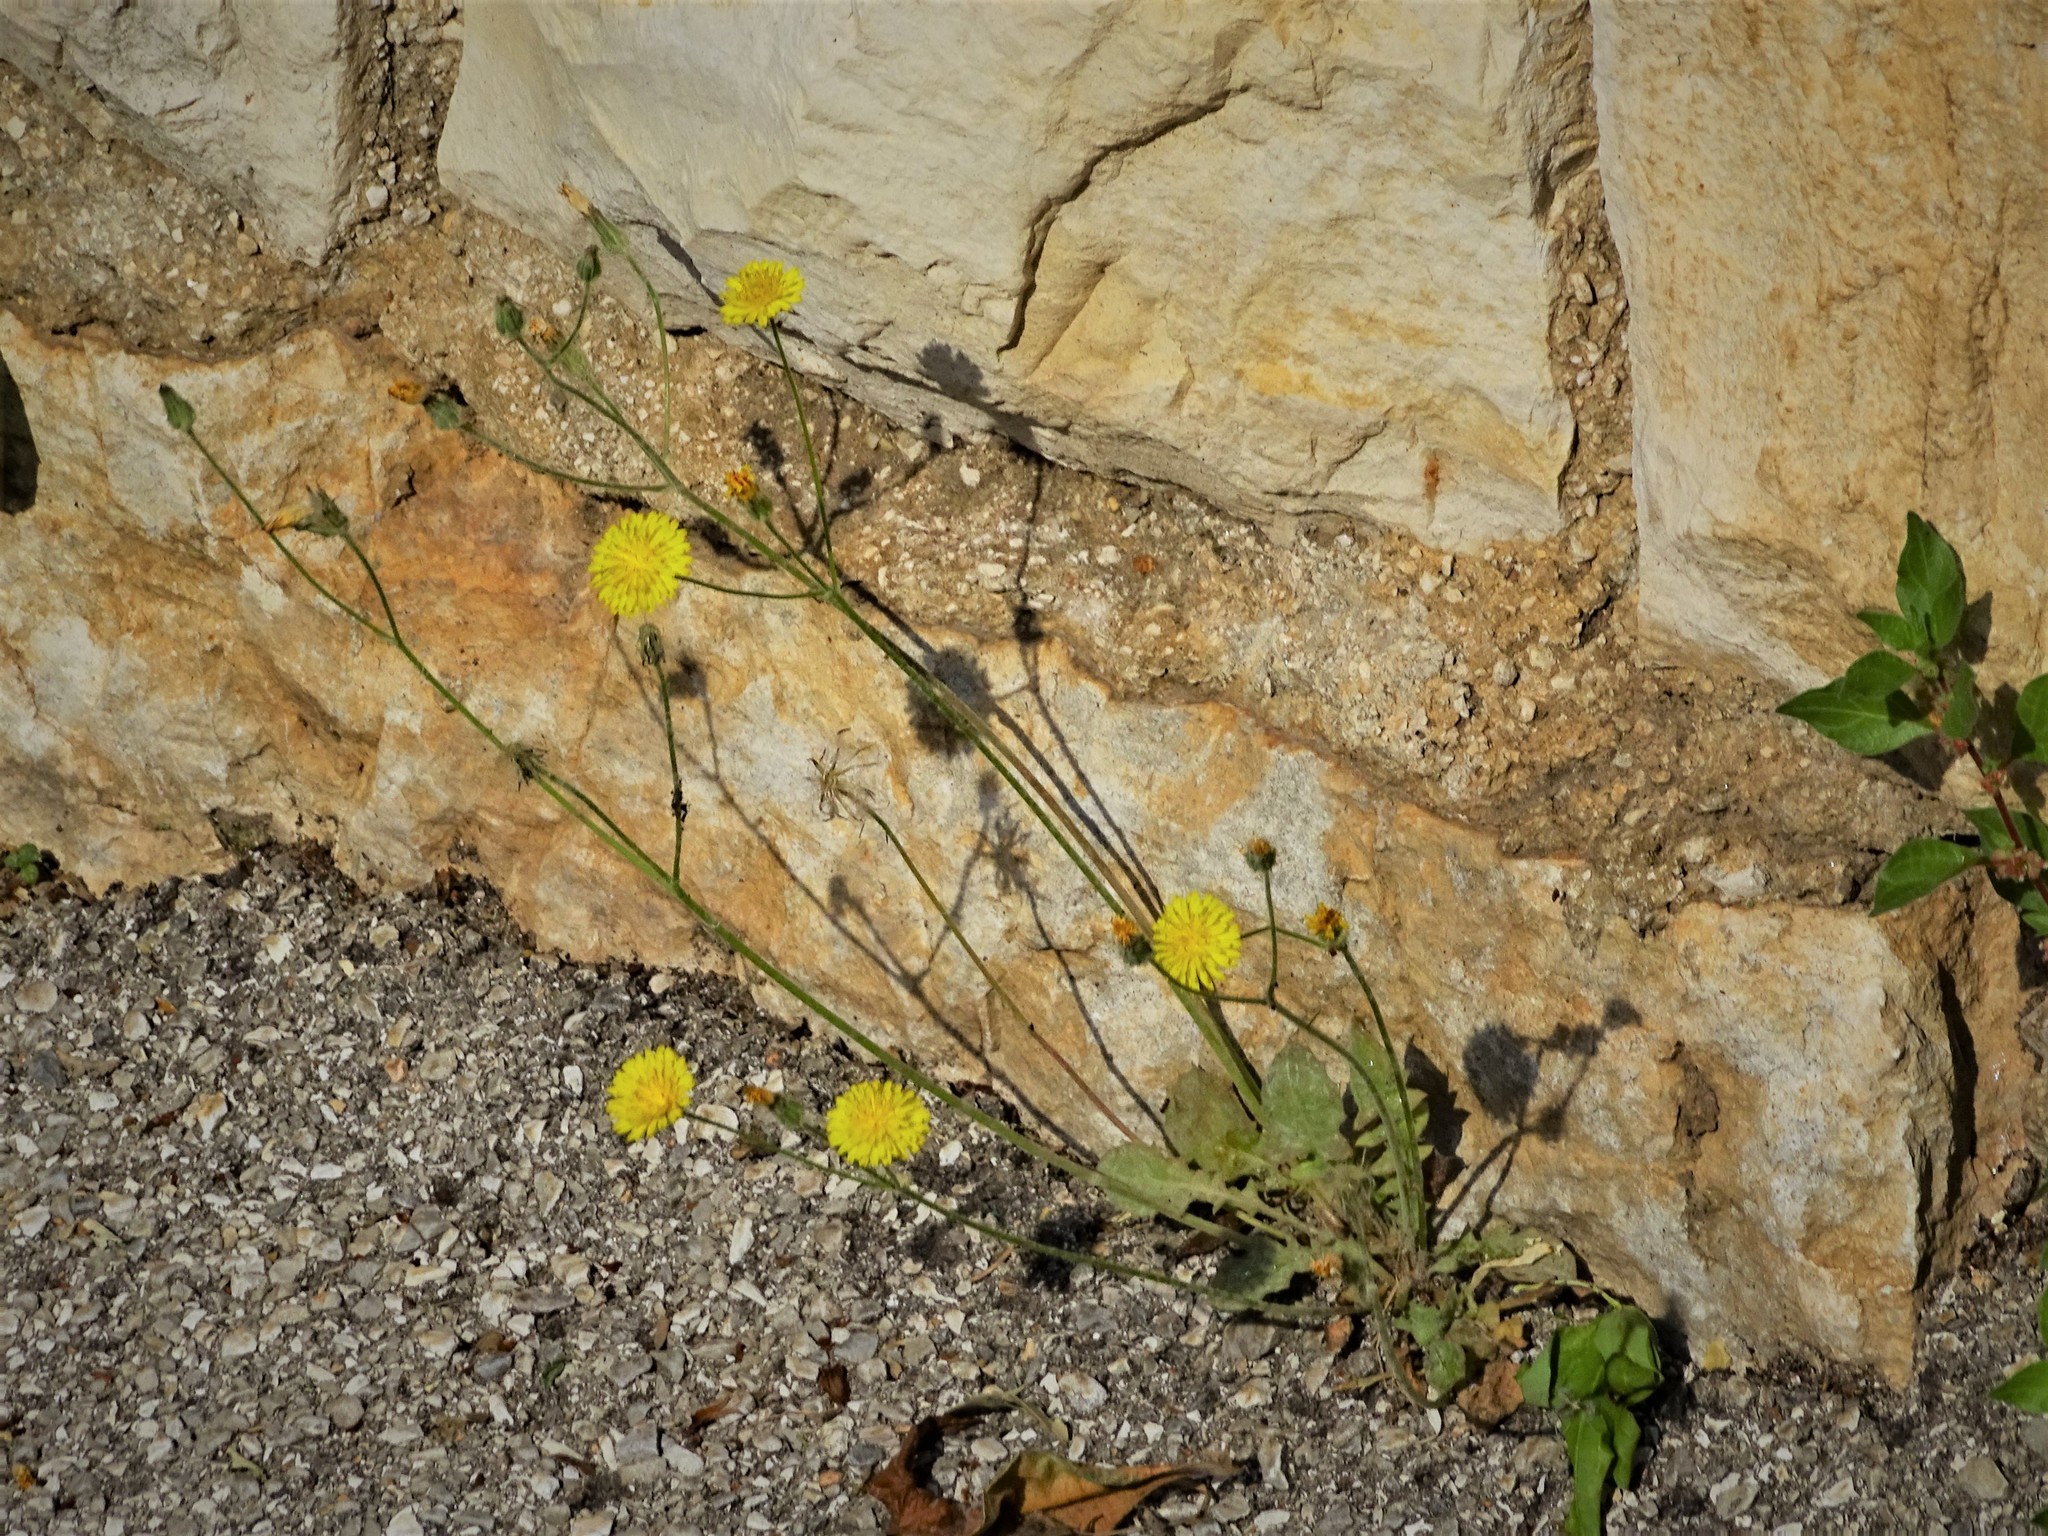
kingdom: Plantae
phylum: Tracheophyta
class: Magnoliopsida
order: Asterales
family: Asteraceae
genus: Crepis
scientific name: Crepis sancta
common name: Hawk's-beard
